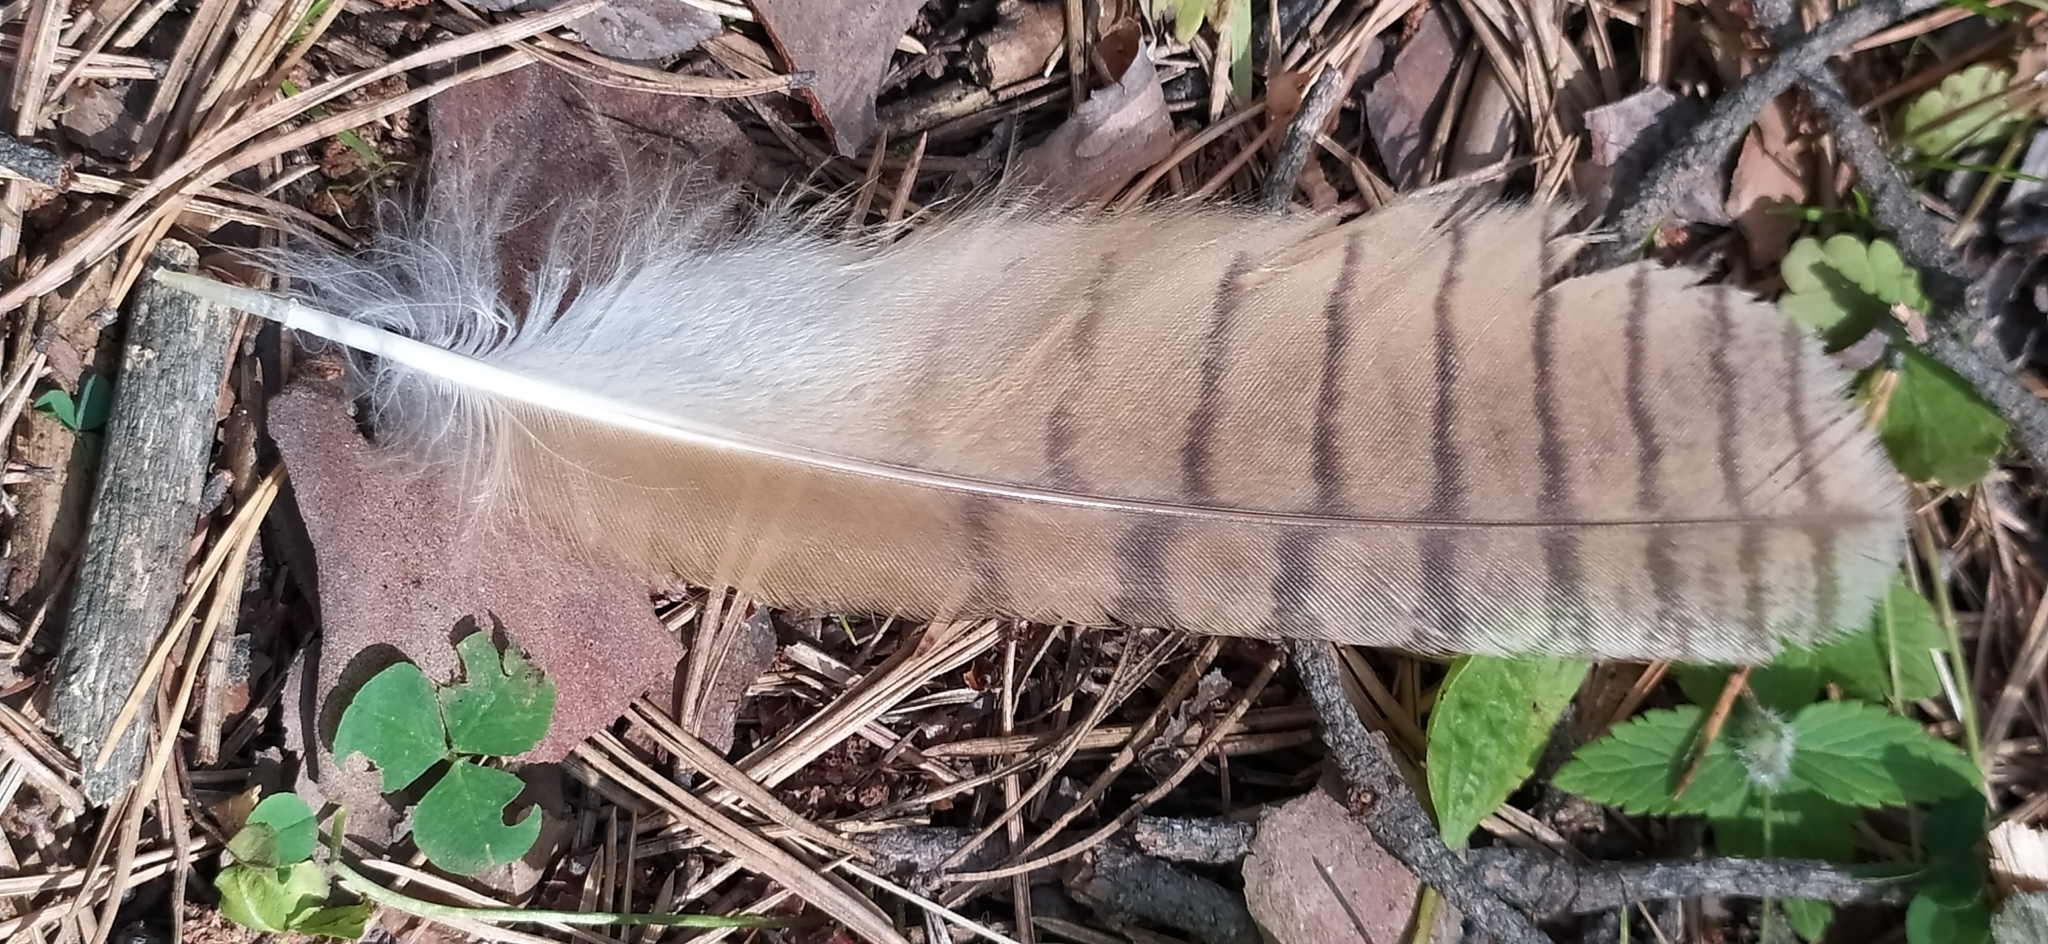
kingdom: Animalia
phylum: Chordata
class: Aves
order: Strigiformes
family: Strigidae
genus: Asio
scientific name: Asio otus
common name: Long-eared owl
